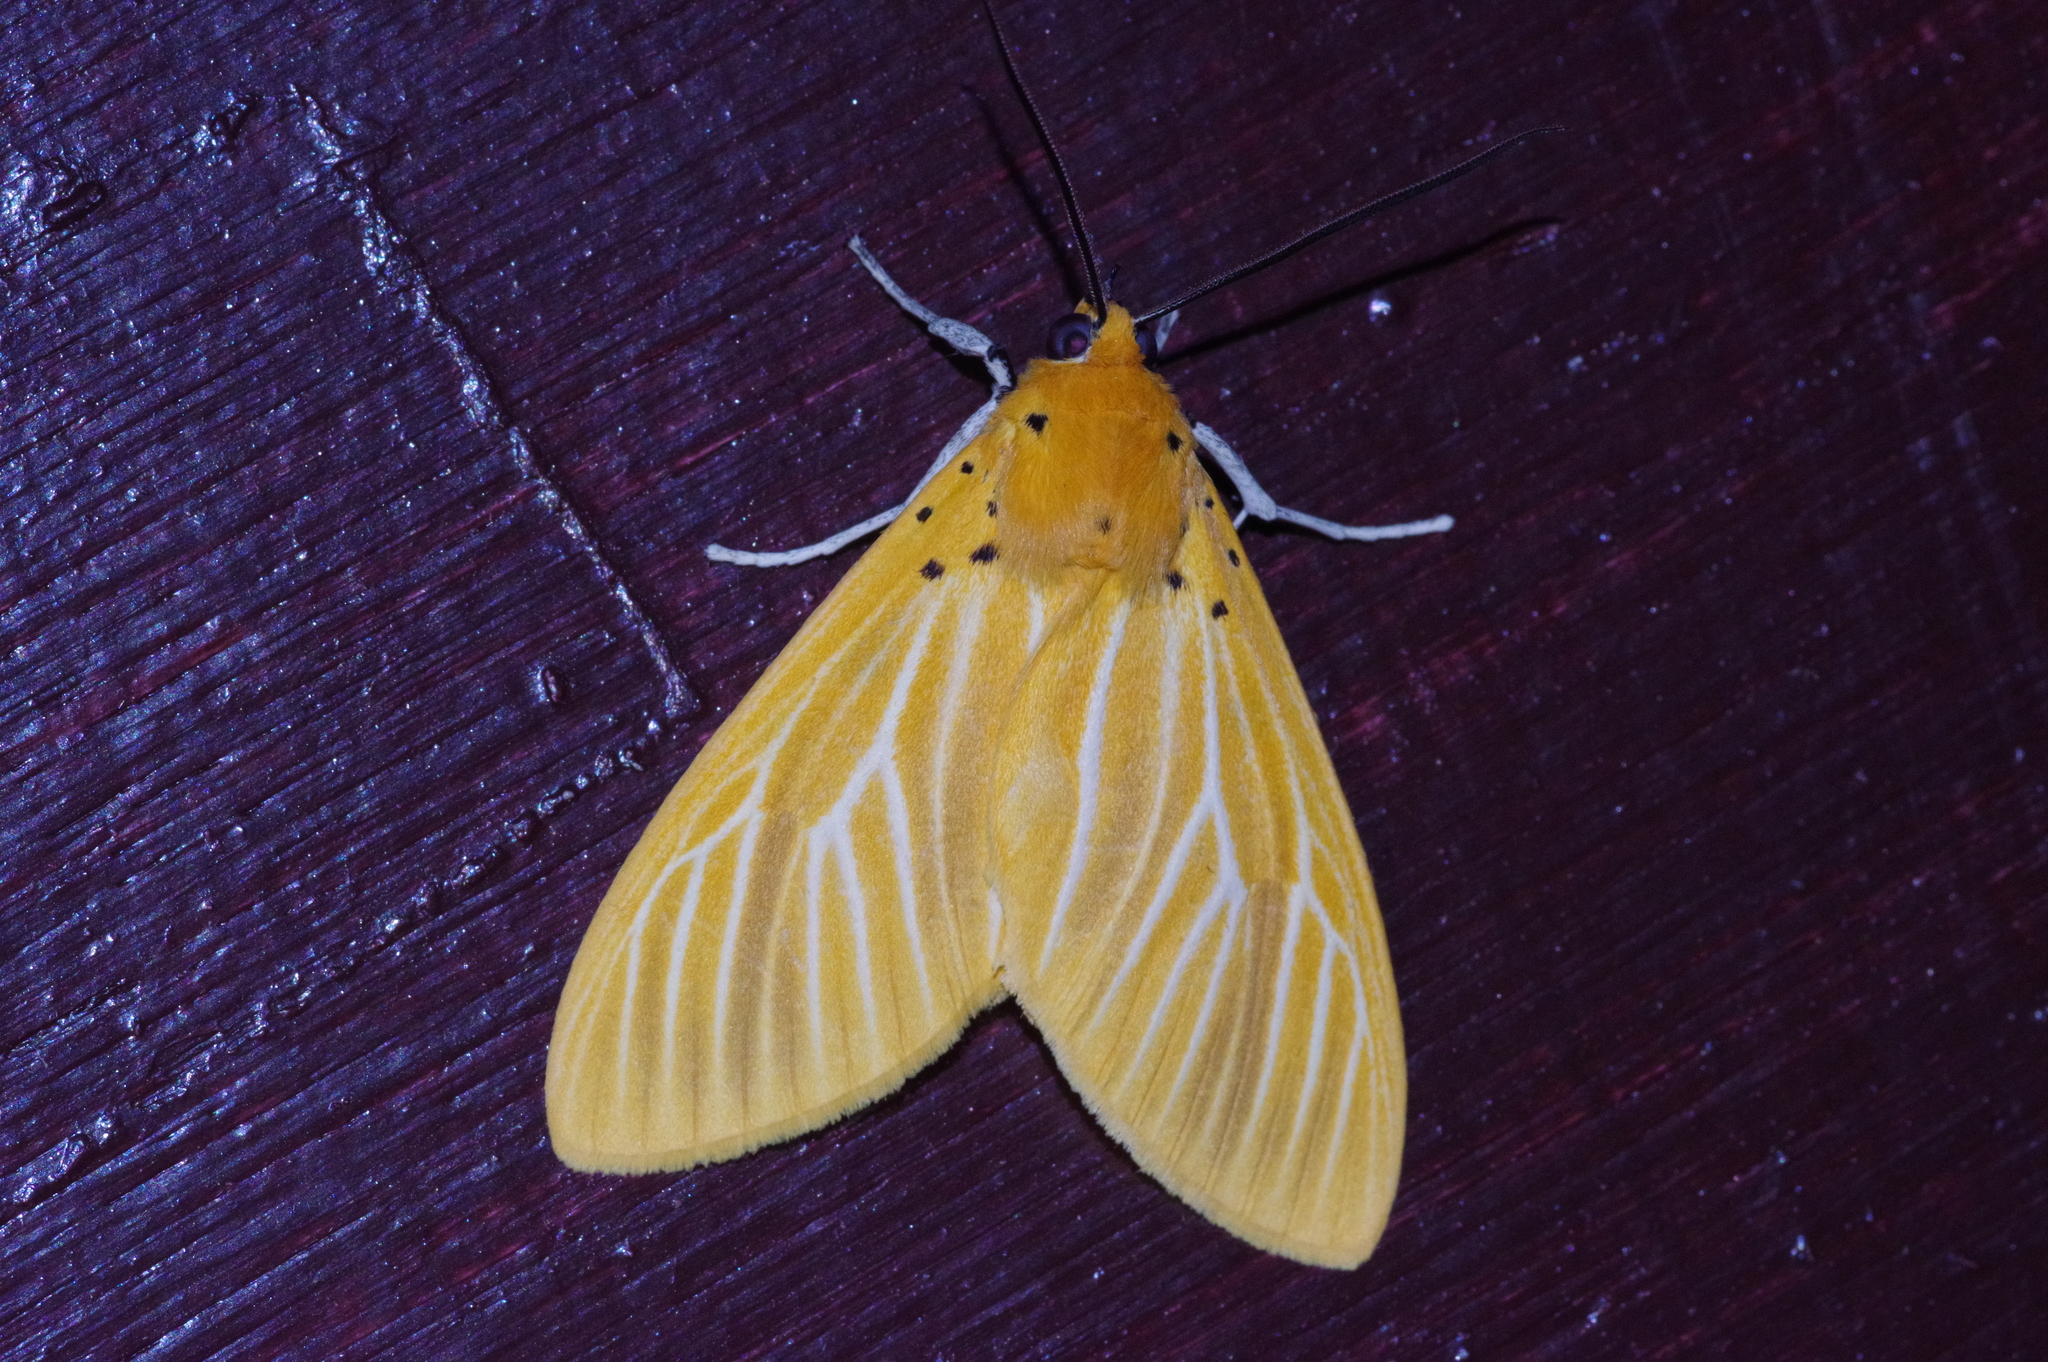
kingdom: Animalia
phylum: Arthropoda
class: Insecta
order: Lepidoptera
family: Erebidae
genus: Asota
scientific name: Asota egens
